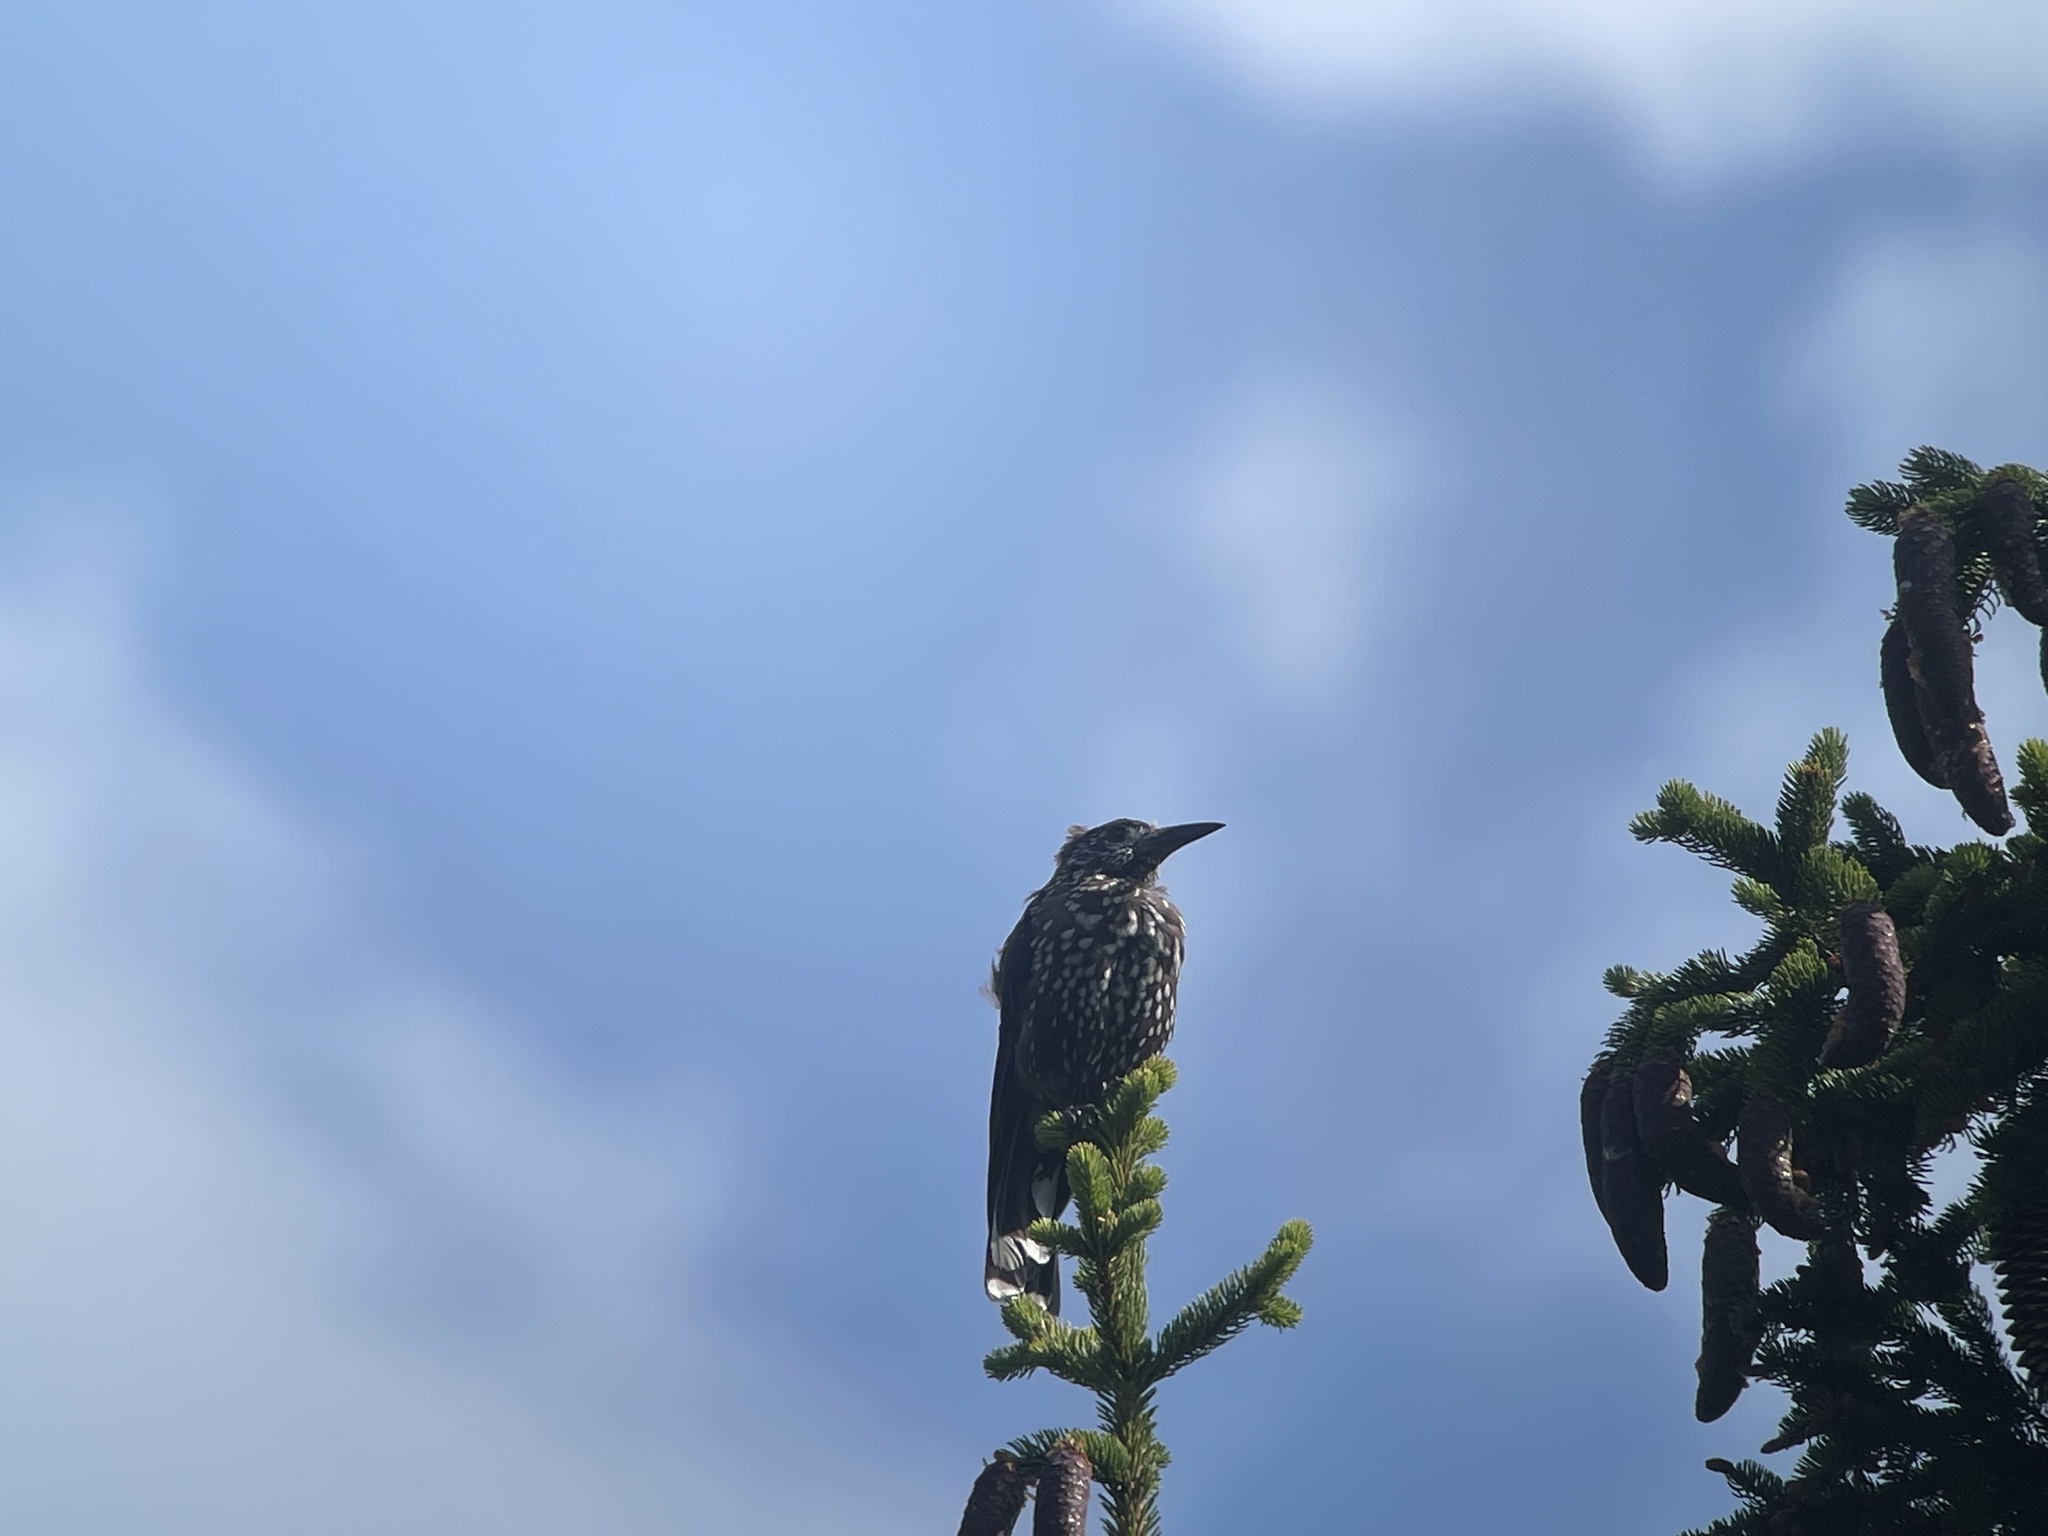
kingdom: Animalia
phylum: Chordata
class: Aves
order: Passeriformes
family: Corvidae
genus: Nucifraga
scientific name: Nucifraga caryocatactes
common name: Spotted nutcracker
